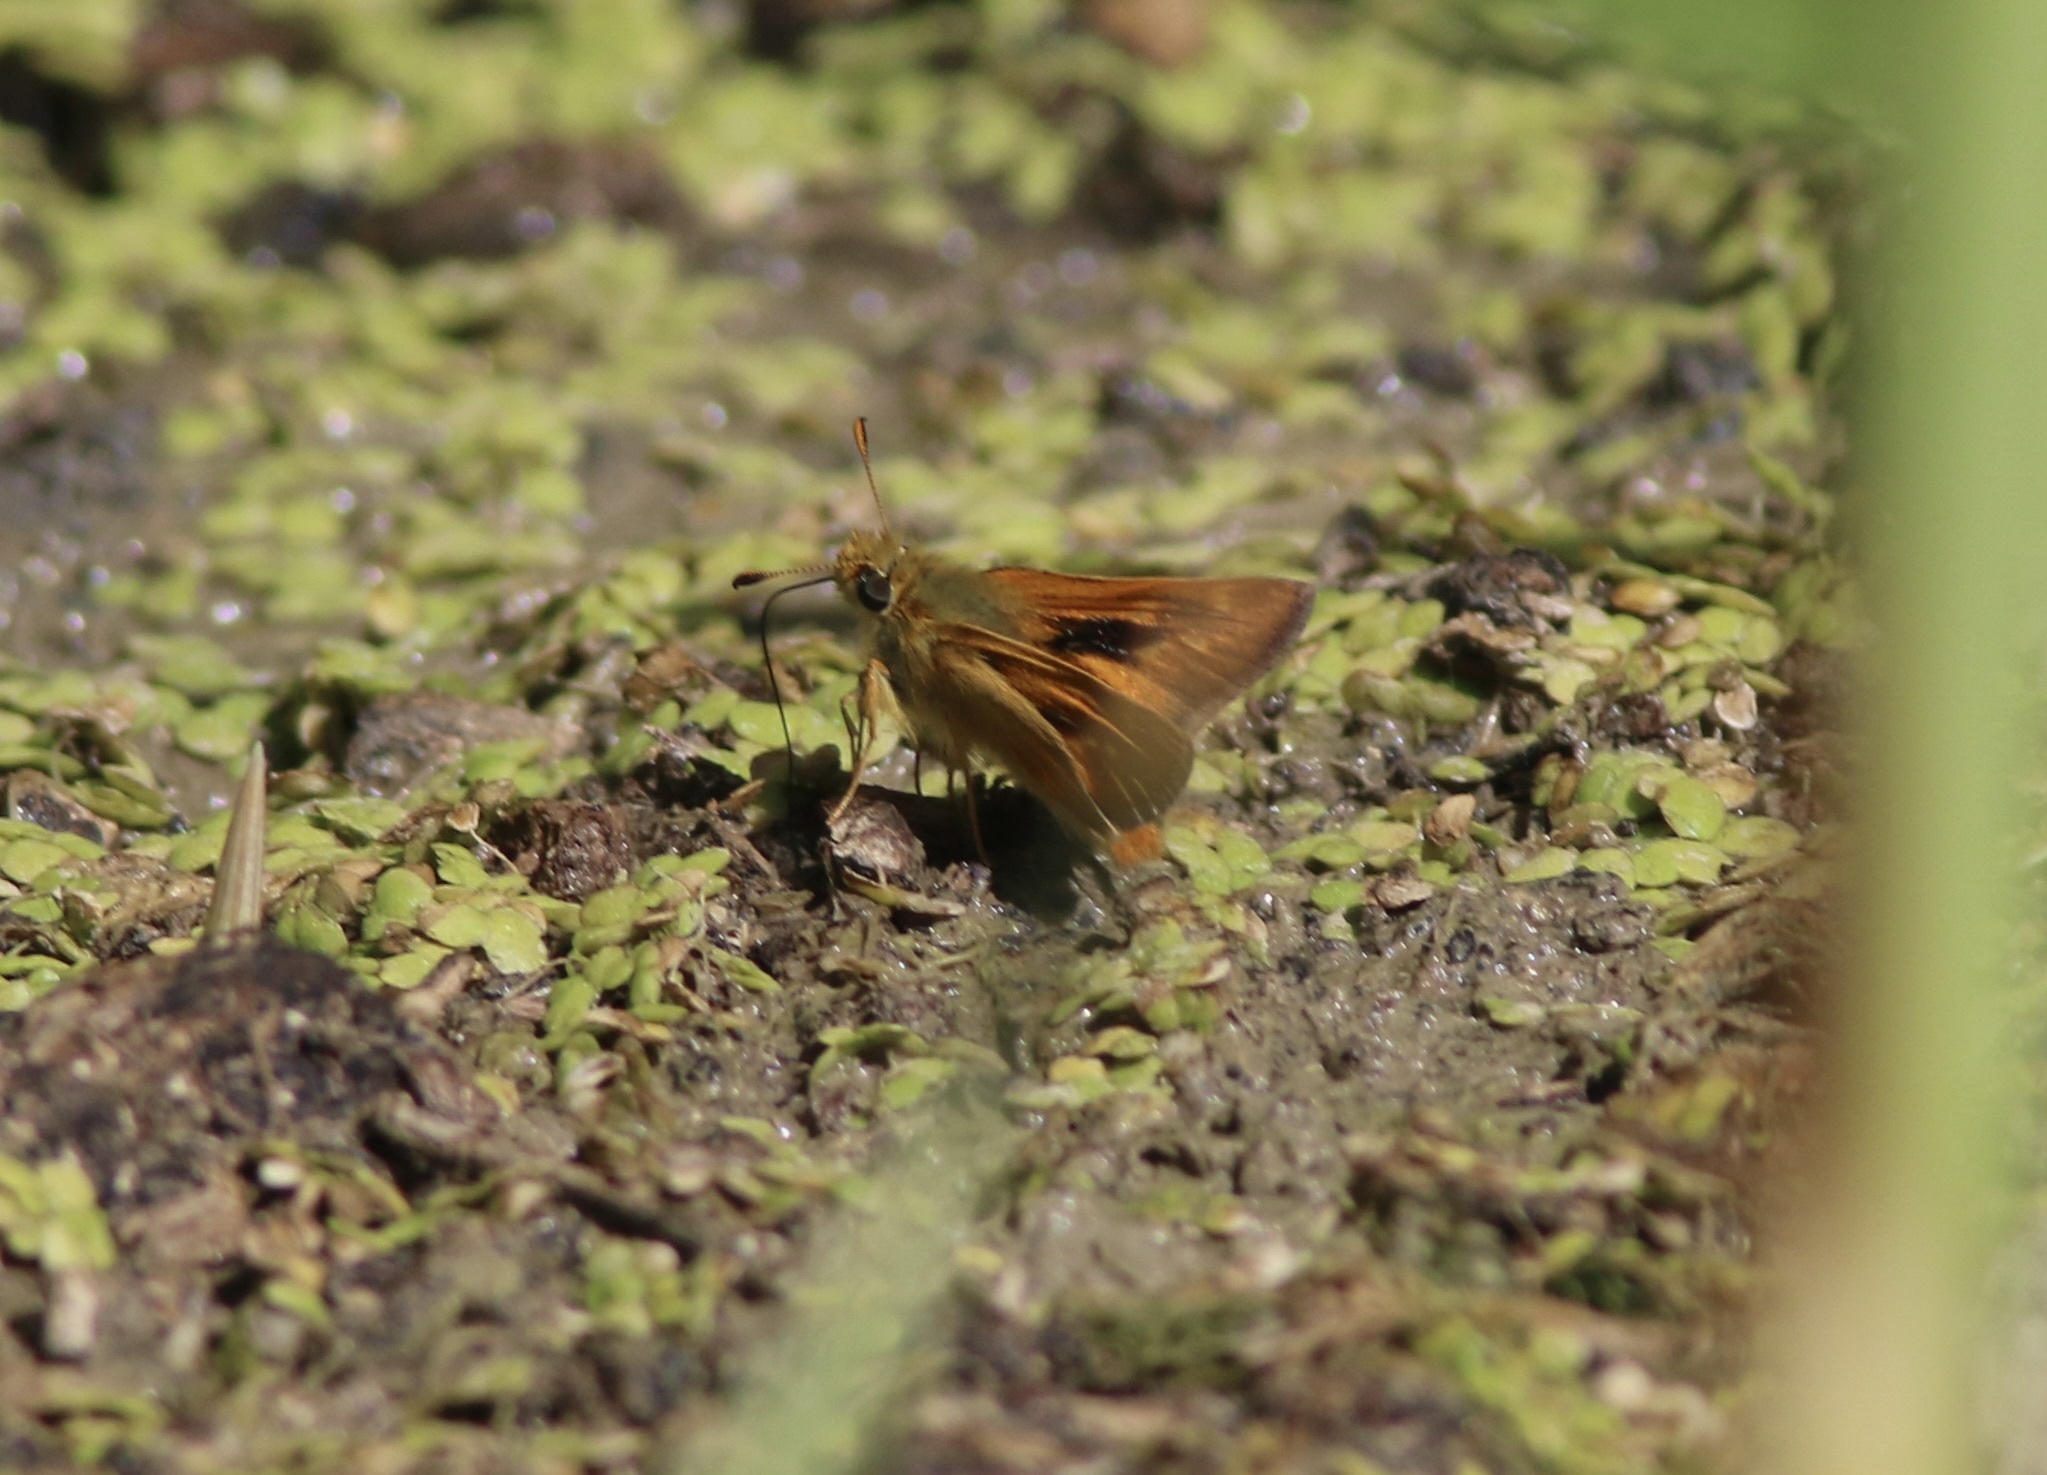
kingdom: Animalia
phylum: Arthropoda
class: Insecta
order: Lepidoptera
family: Hesperiidae
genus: Ochlodes
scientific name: Ochlodes agricola
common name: Rural skipper
